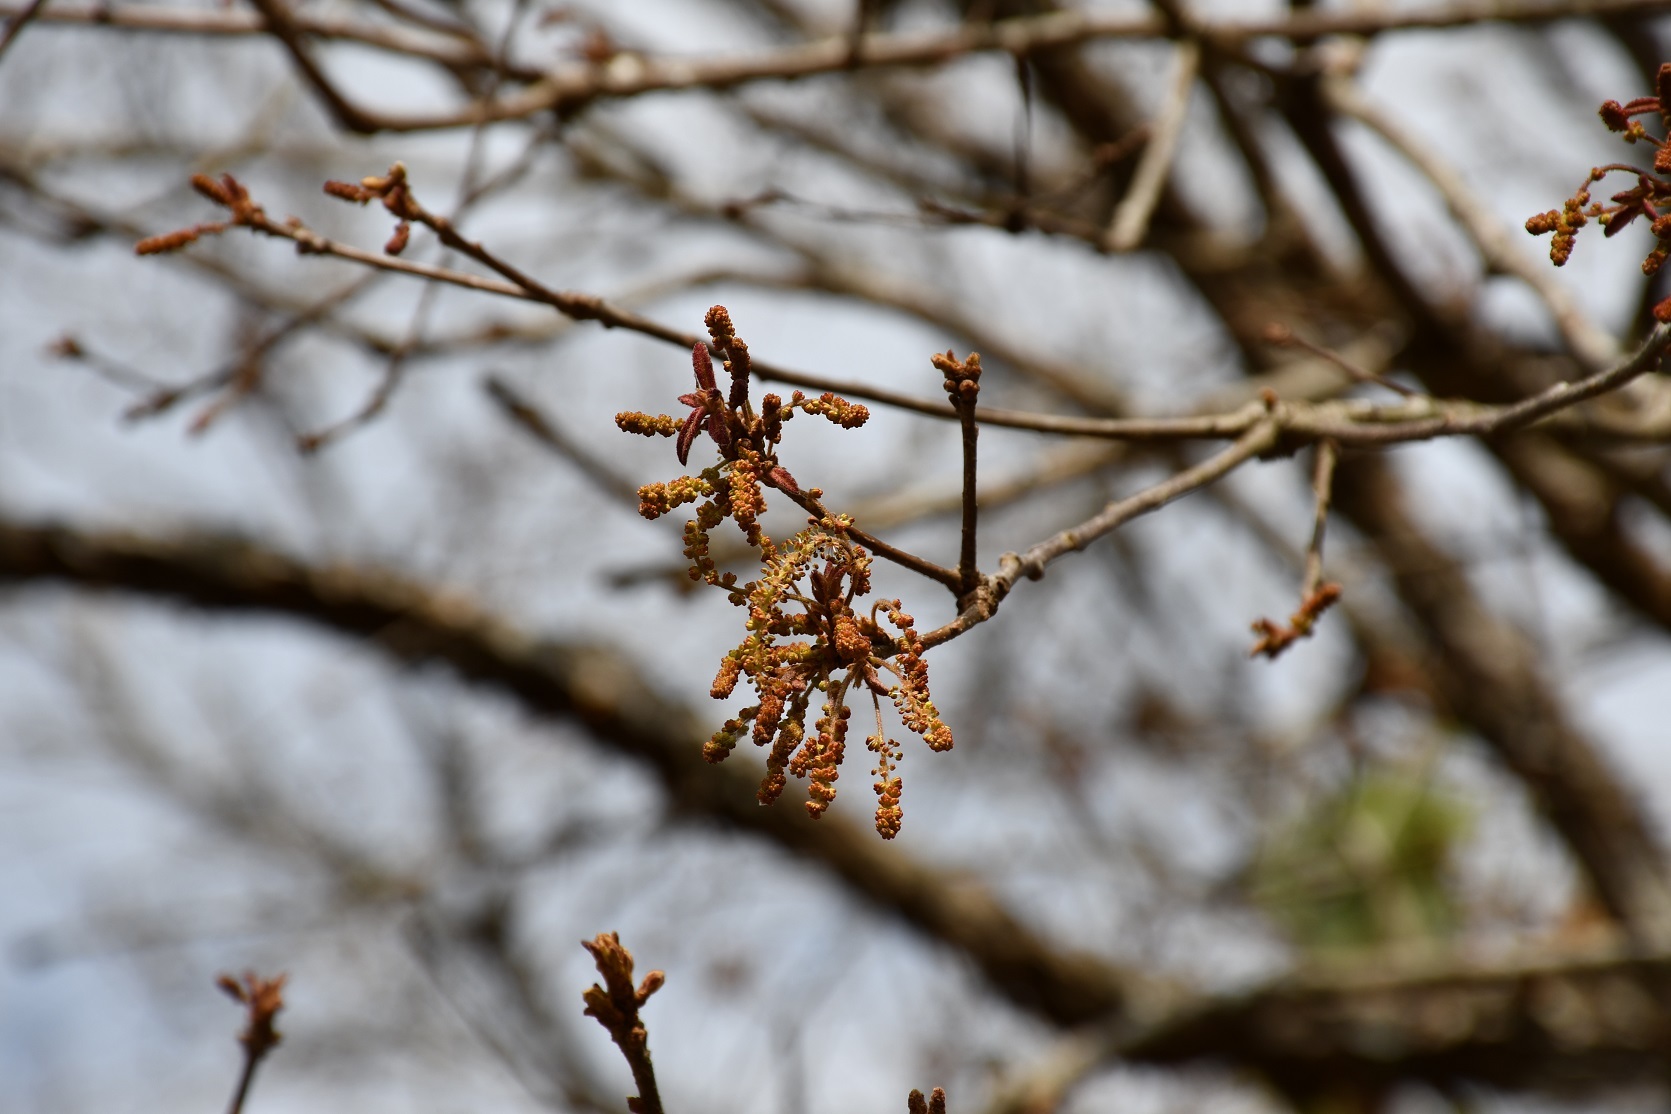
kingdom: Plantae
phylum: Tracheophyta
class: Magnoliopsida
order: Fagales
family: Fagaceae
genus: Quercus
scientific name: Quercus purulhana
